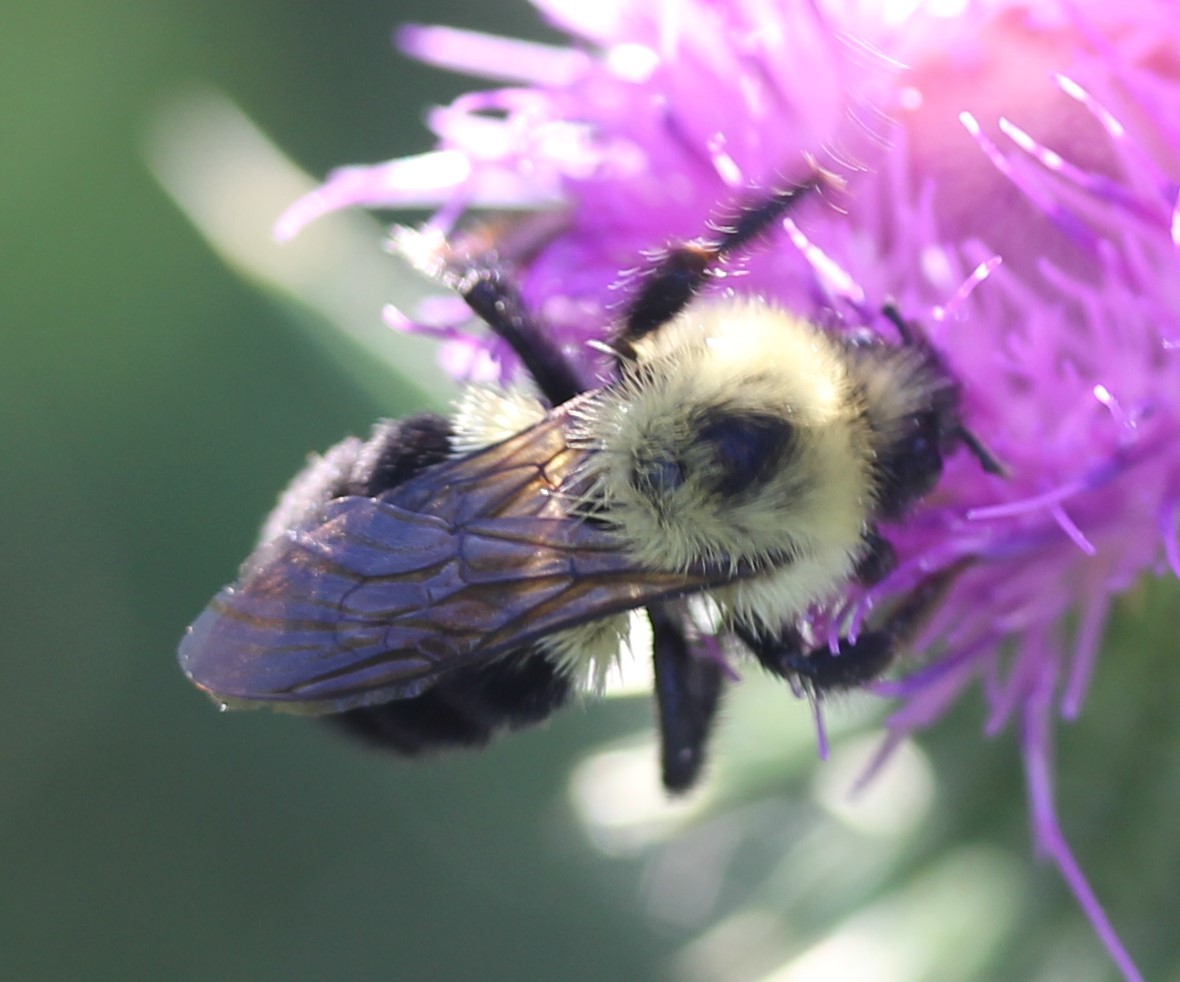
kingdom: Animalia
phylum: Arthropoda
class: Insecta
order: Hymenoptera
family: Apidae
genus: Bombus
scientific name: Bombus bimaculatus
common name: Two-spotted bumble bee
